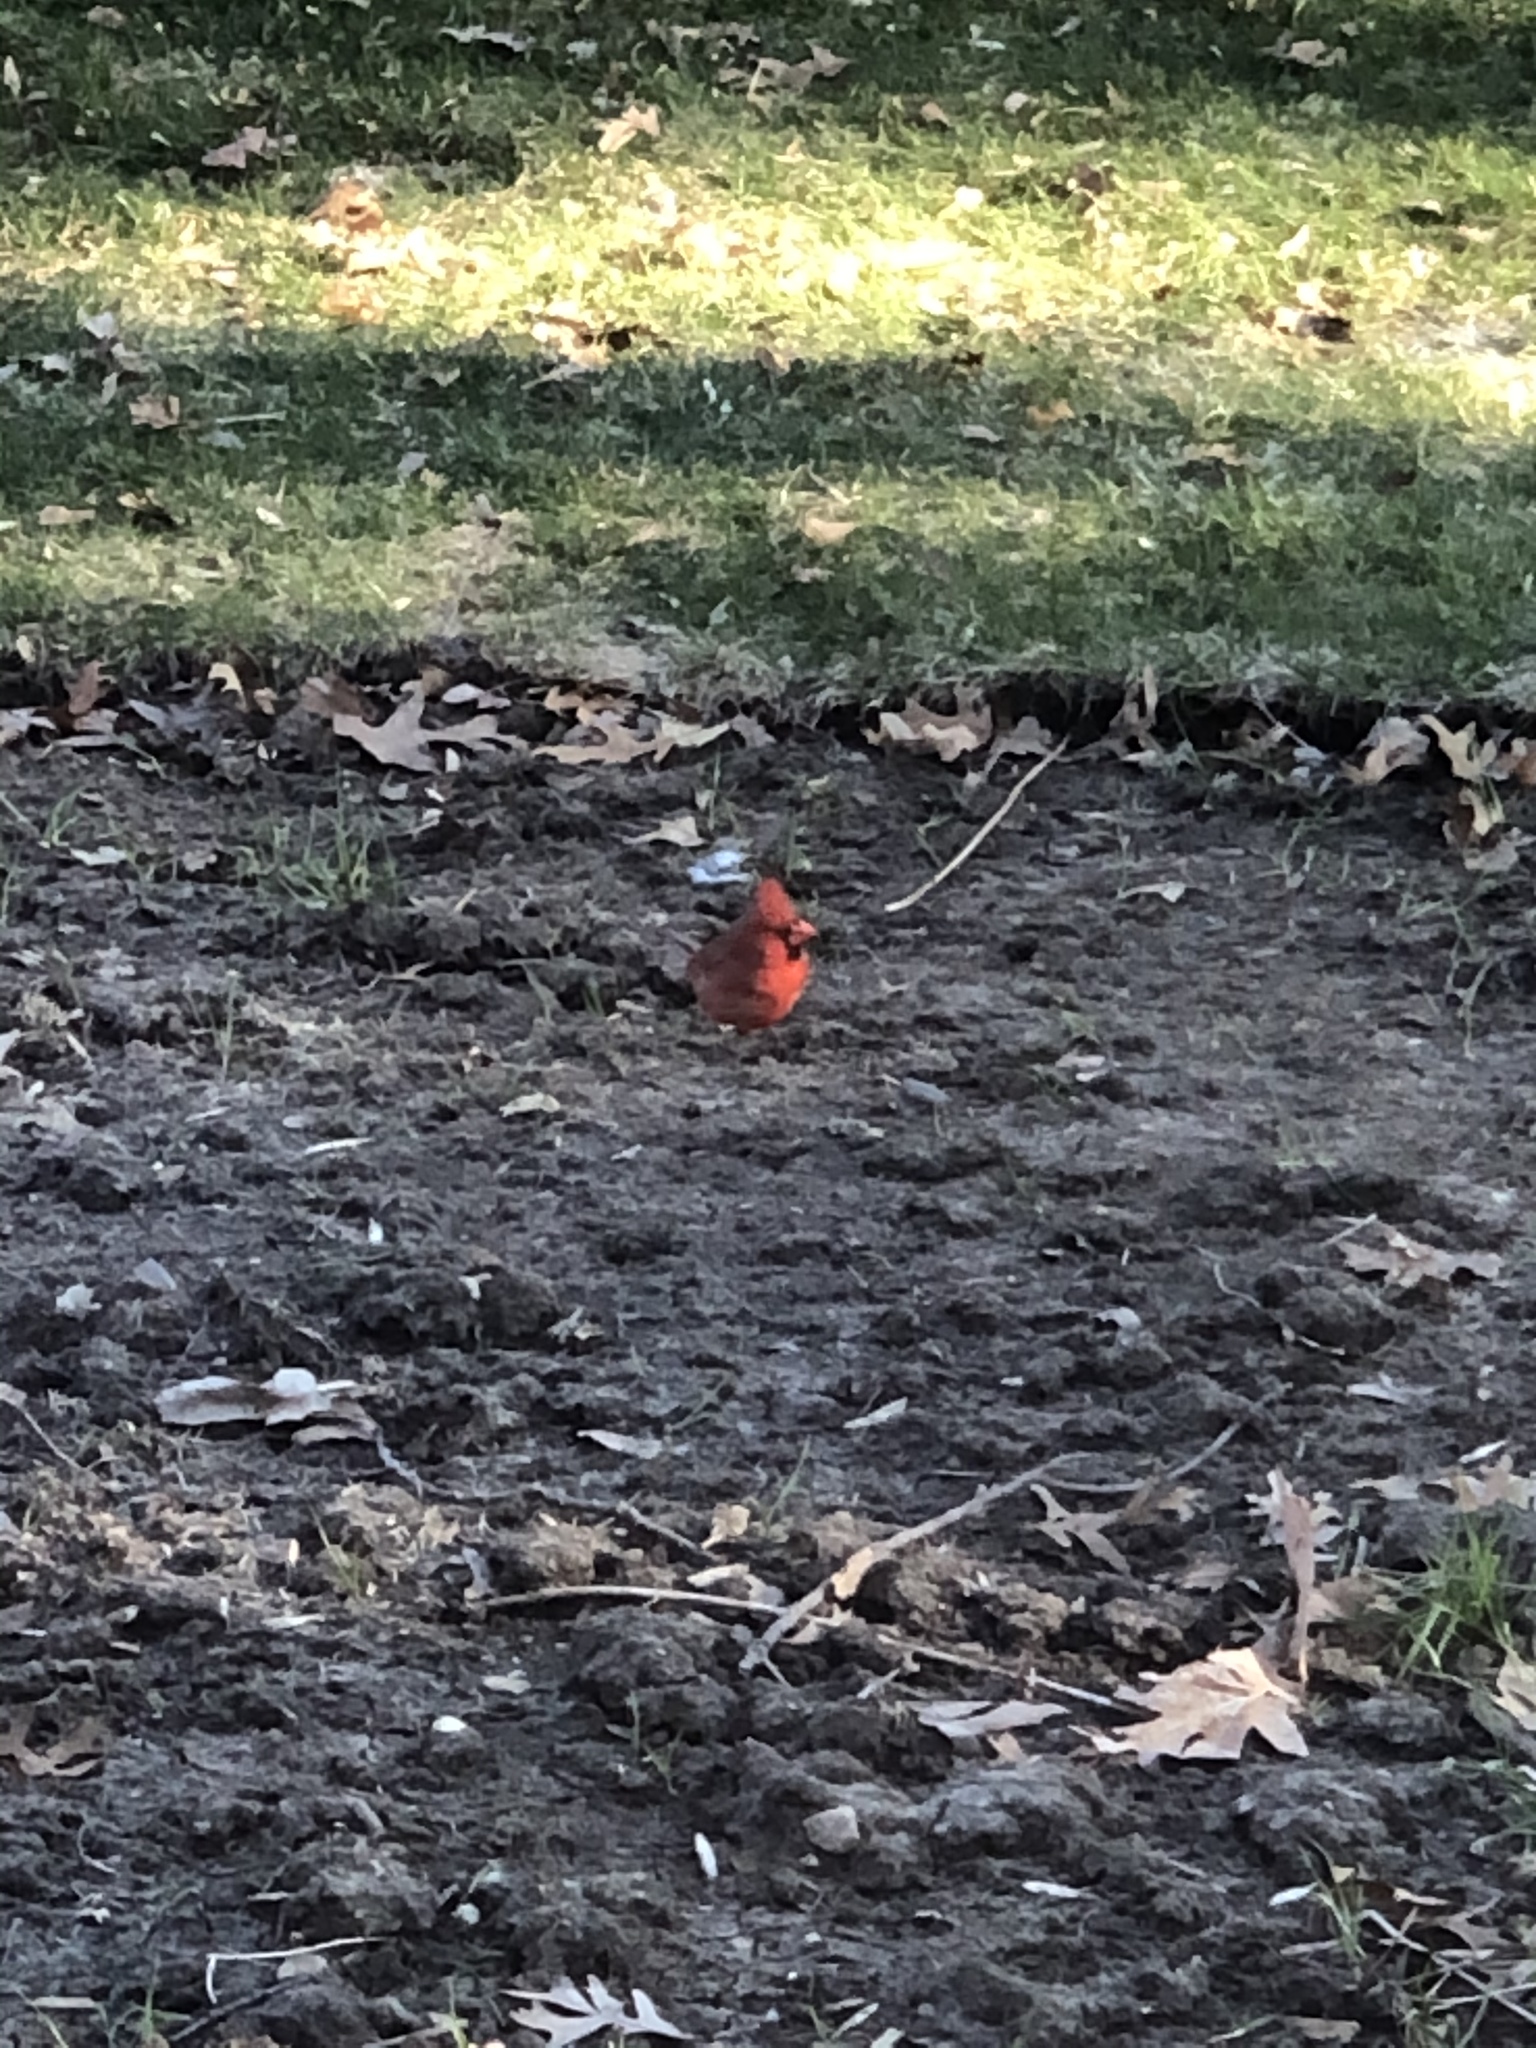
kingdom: Animalia
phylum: Chordata
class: Aves
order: Passeriformes
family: Cardinalidae
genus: Cardinalis
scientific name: Cardinalis cardinalis
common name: Northern cardinal
